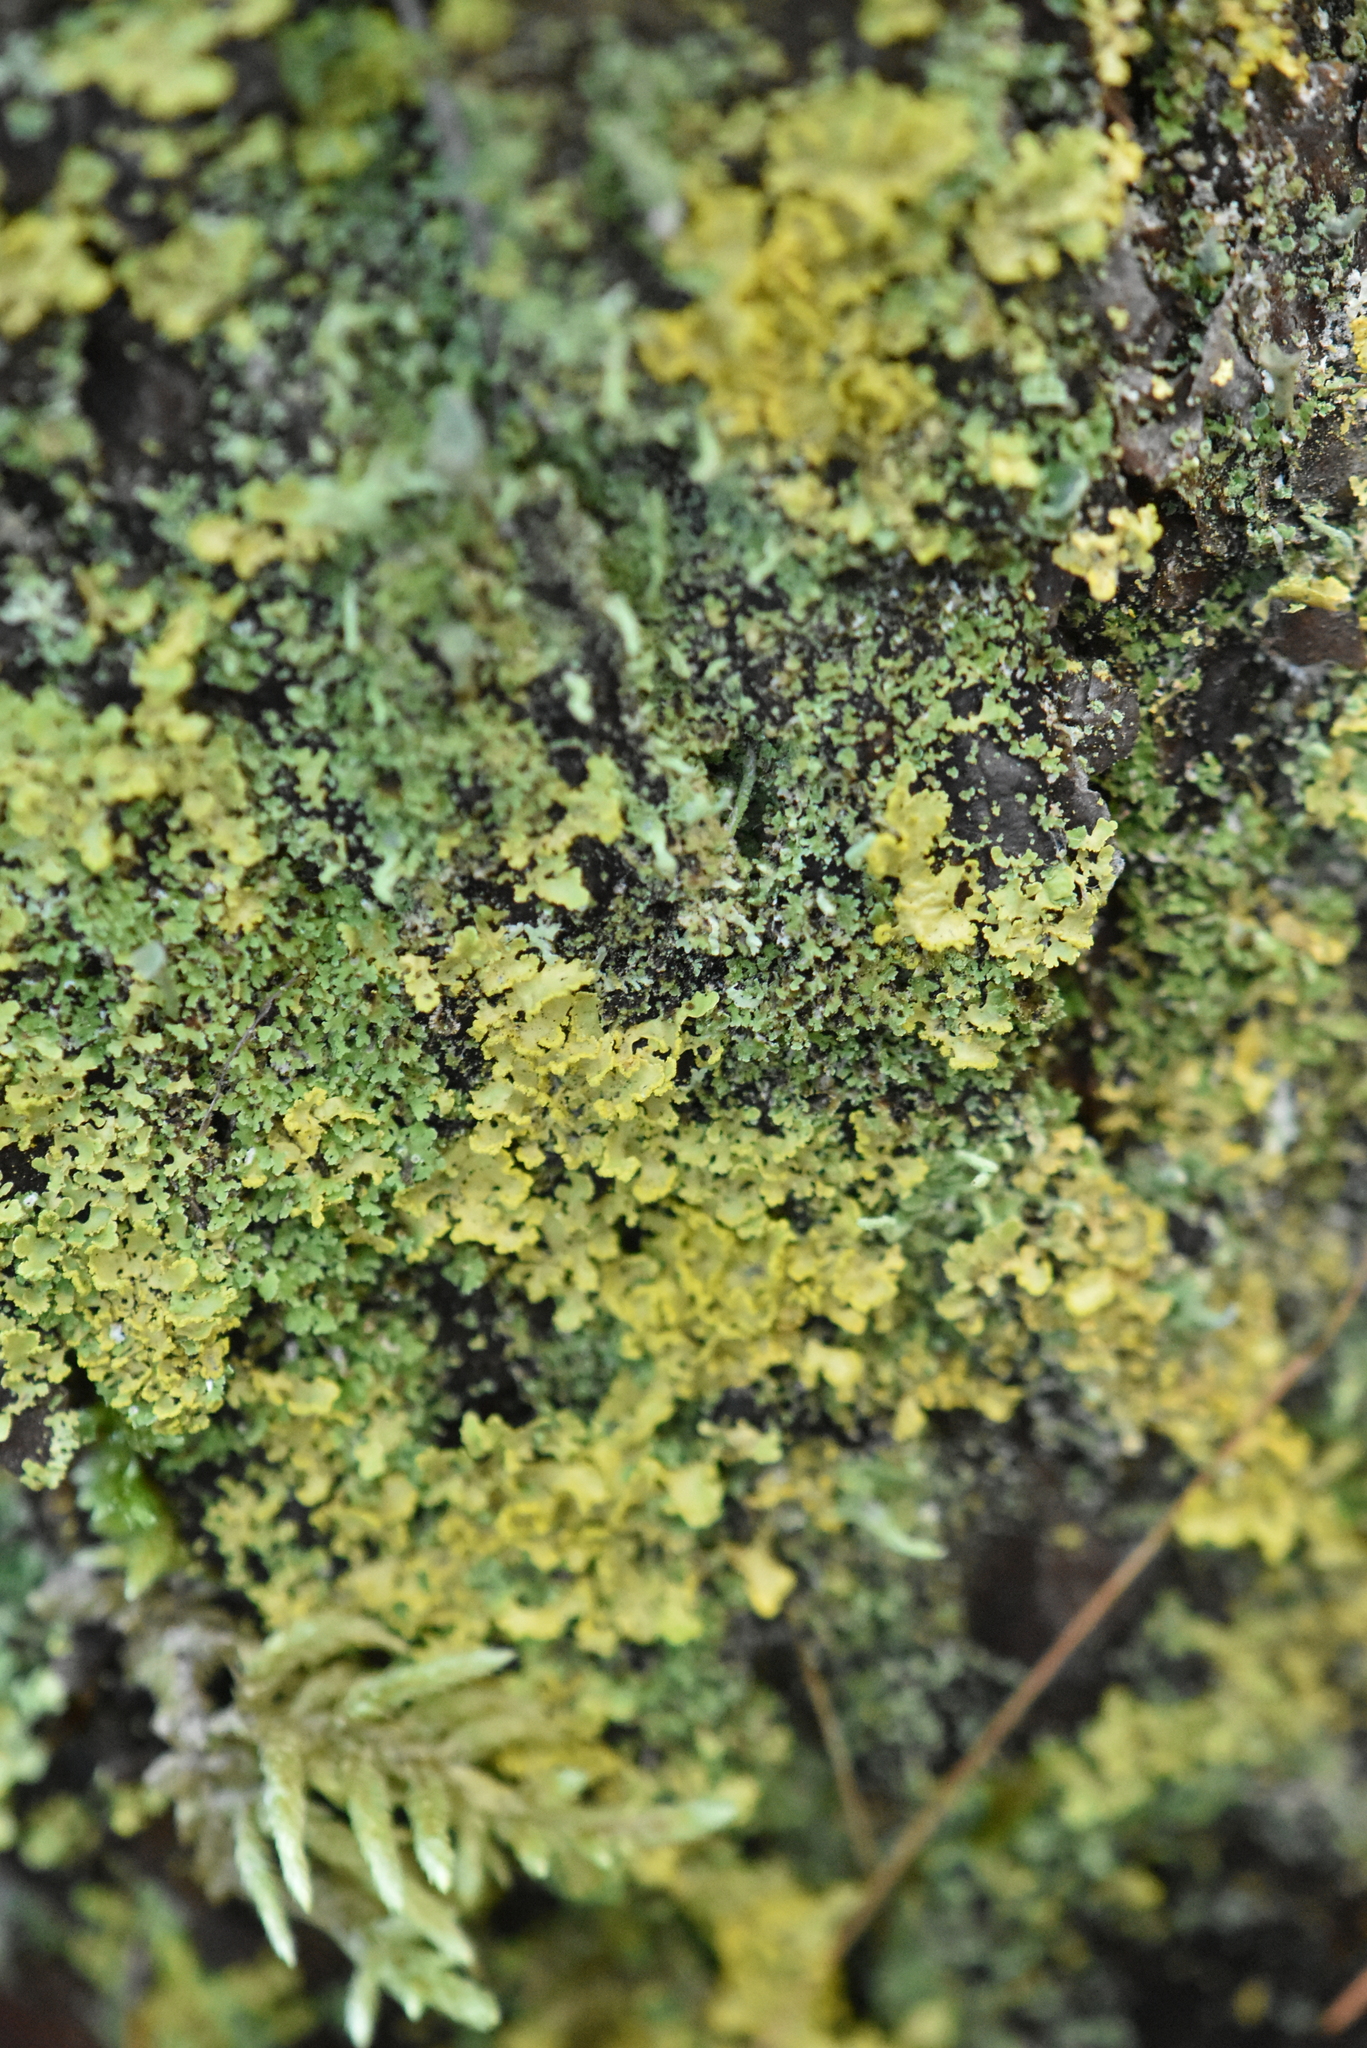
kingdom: Fungi
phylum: Ascomycota
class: Lecanoromycetes
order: Lecanorales
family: Parmeliaceae
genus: Vulpicida
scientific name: Vulpicida pinastri
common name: Powdered sunshine lichen
